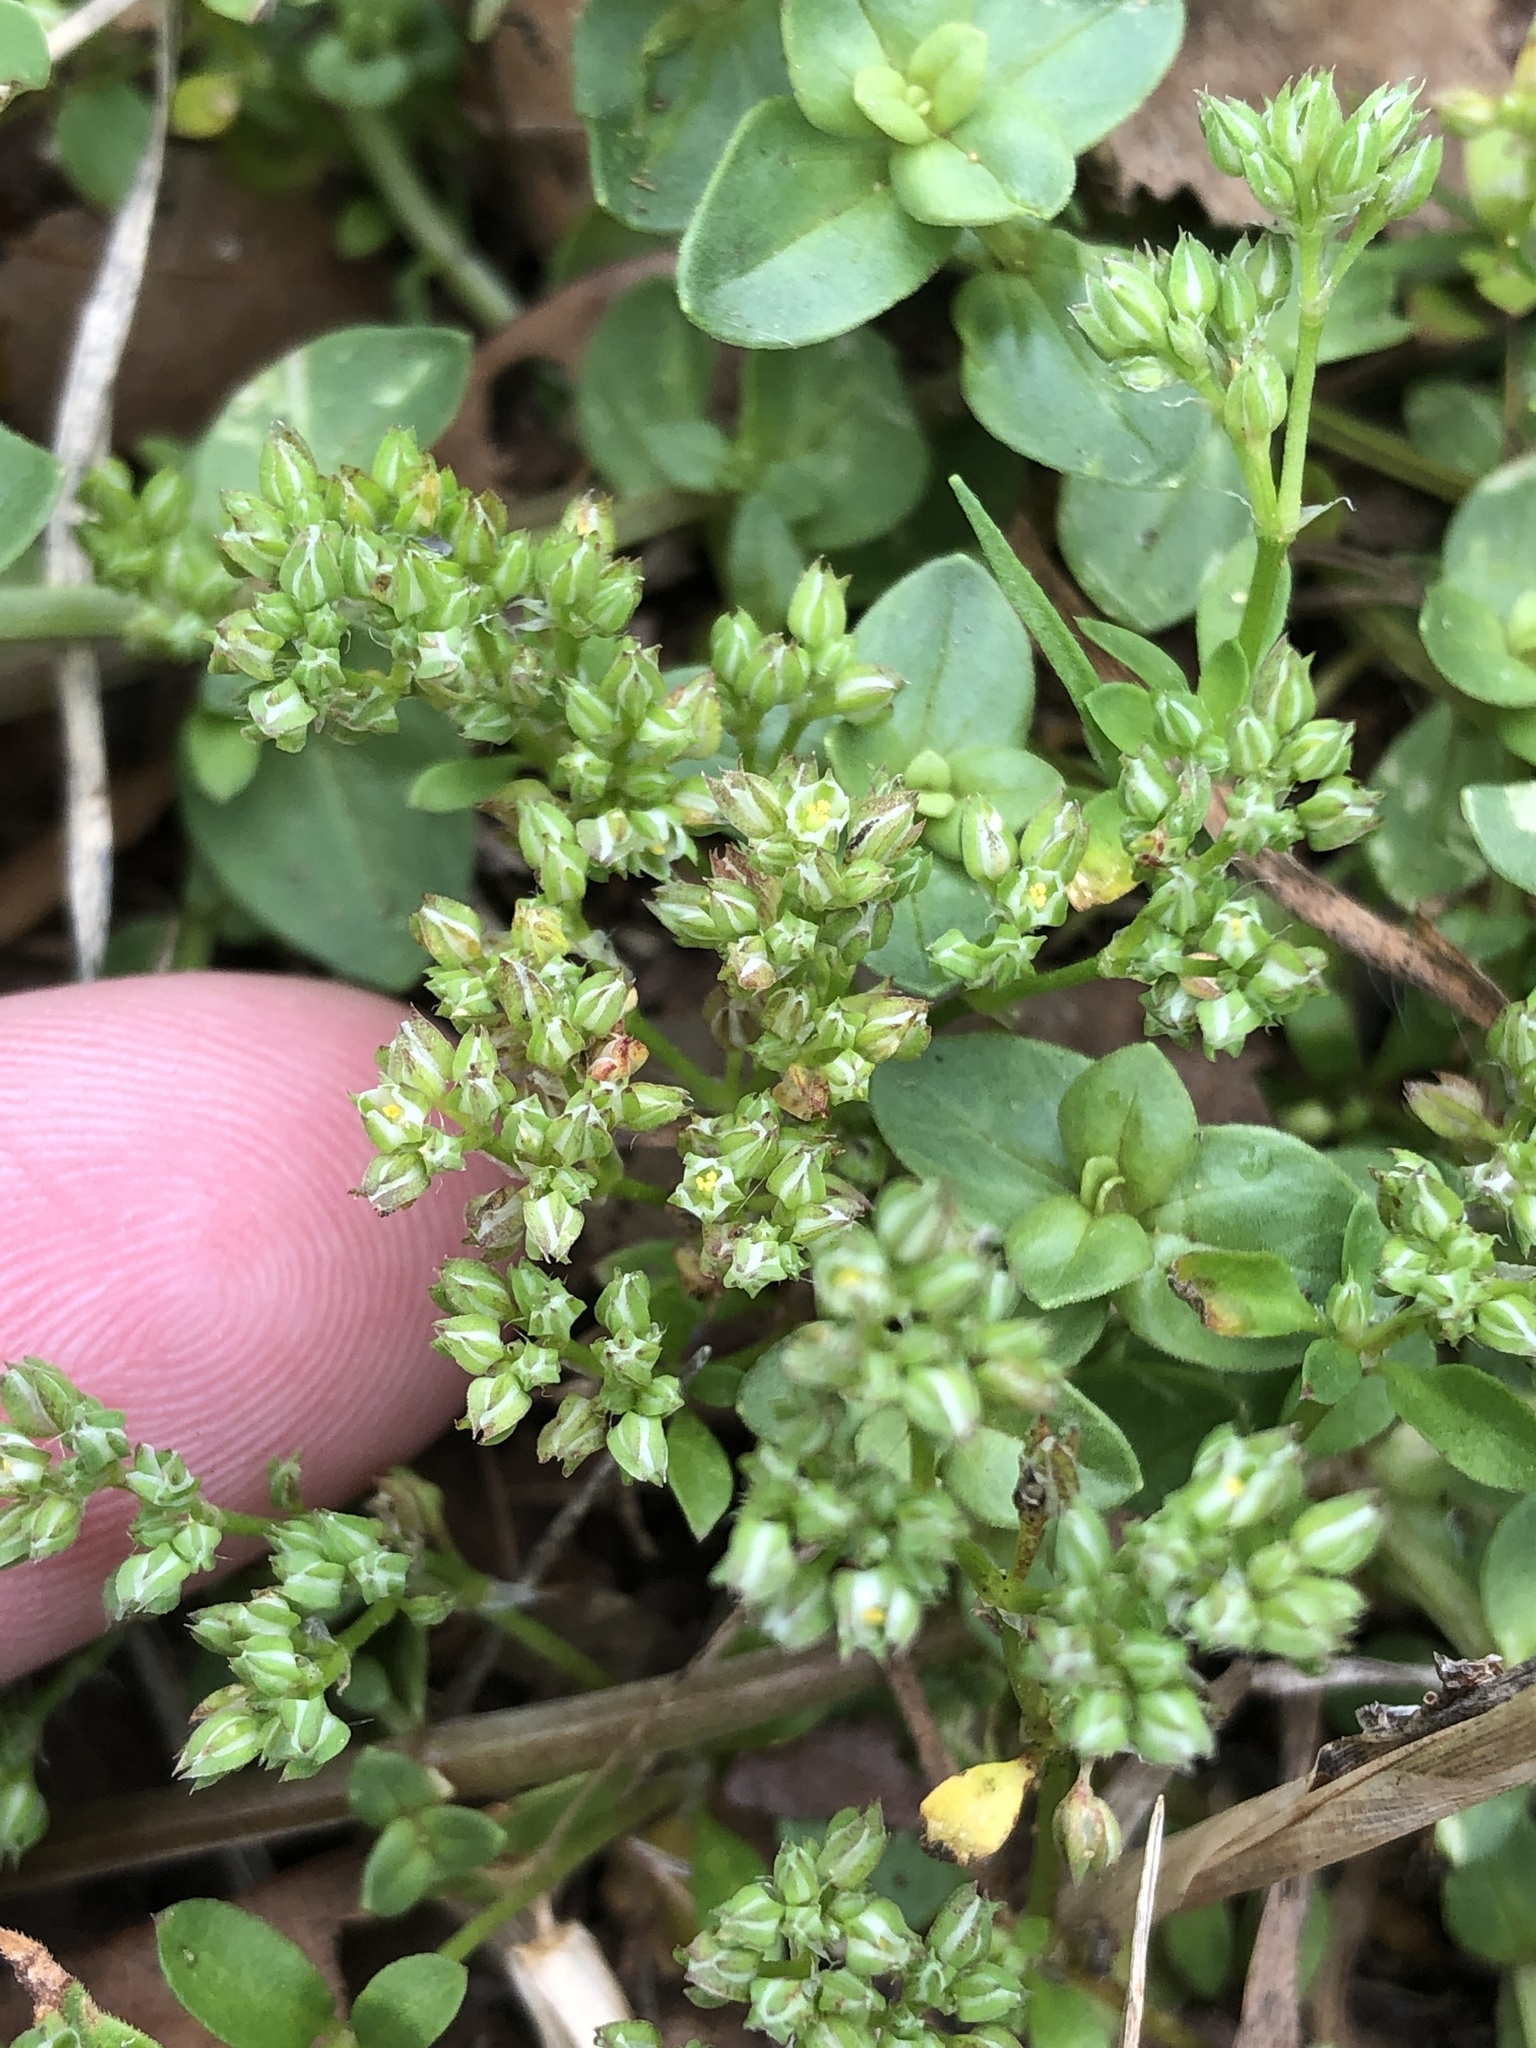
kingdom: Plantae
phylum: Tracheophyta
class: Magnoliopsida
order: Caryophyllales
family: Caryophyllaceae
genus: Polycarpon
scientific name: Polycarpon tetraphyllum
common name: Four-leaved all-seed
